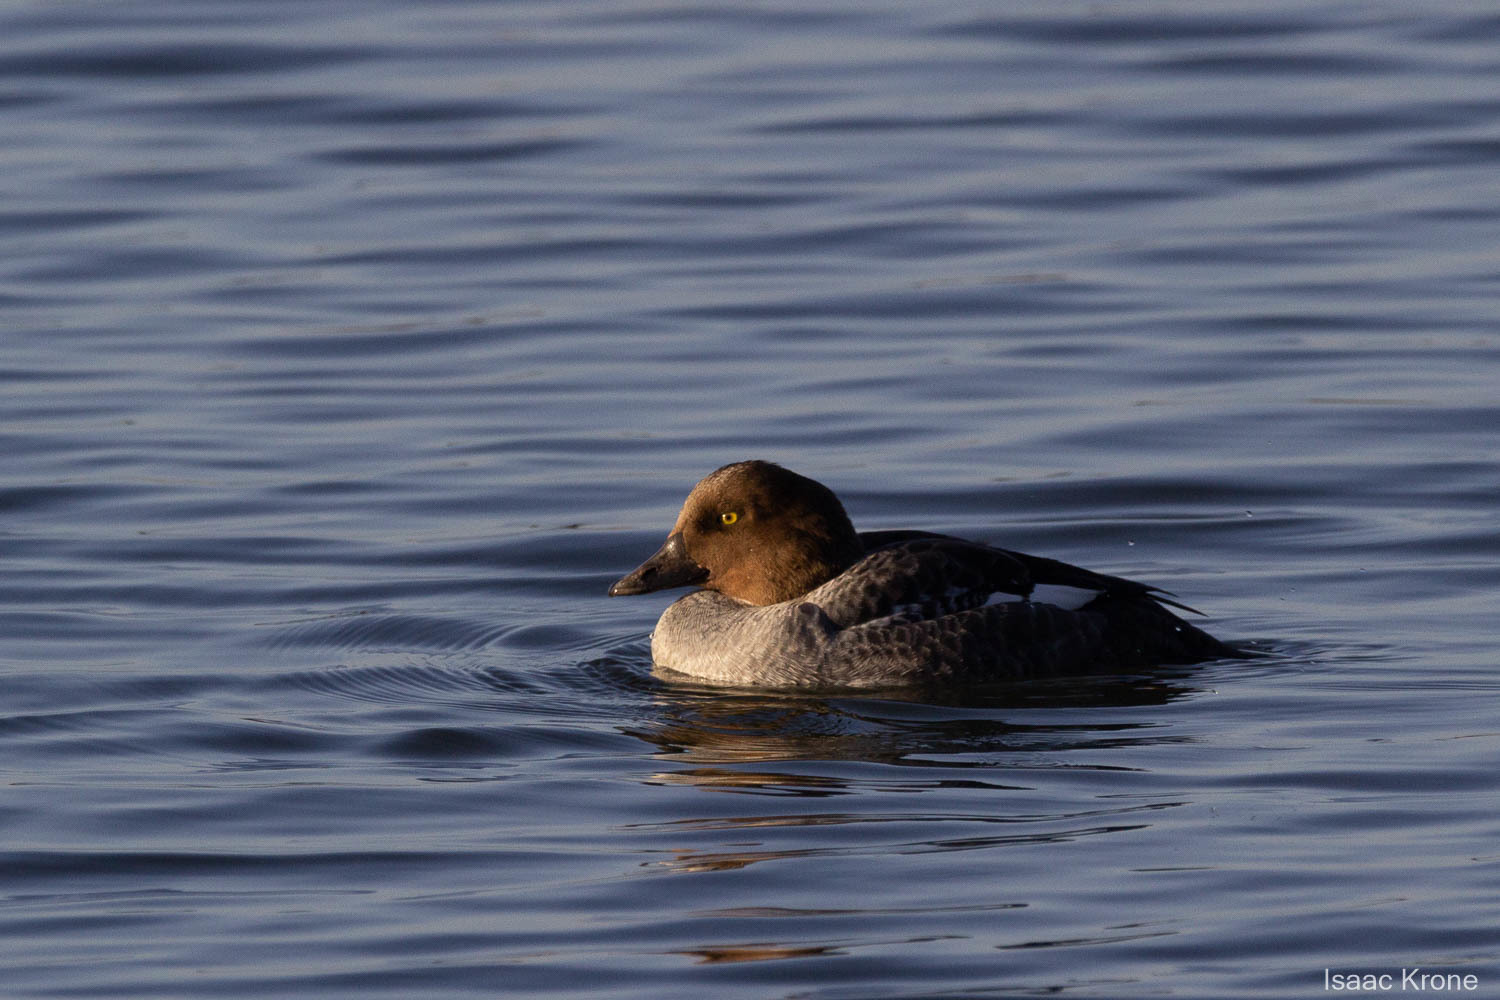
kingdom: Animalia
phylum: Chordata
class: Aves
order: Anseriformes
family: Anatidae
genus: Bucephala
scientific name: Bucephala clangula
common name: Common goldeneye
